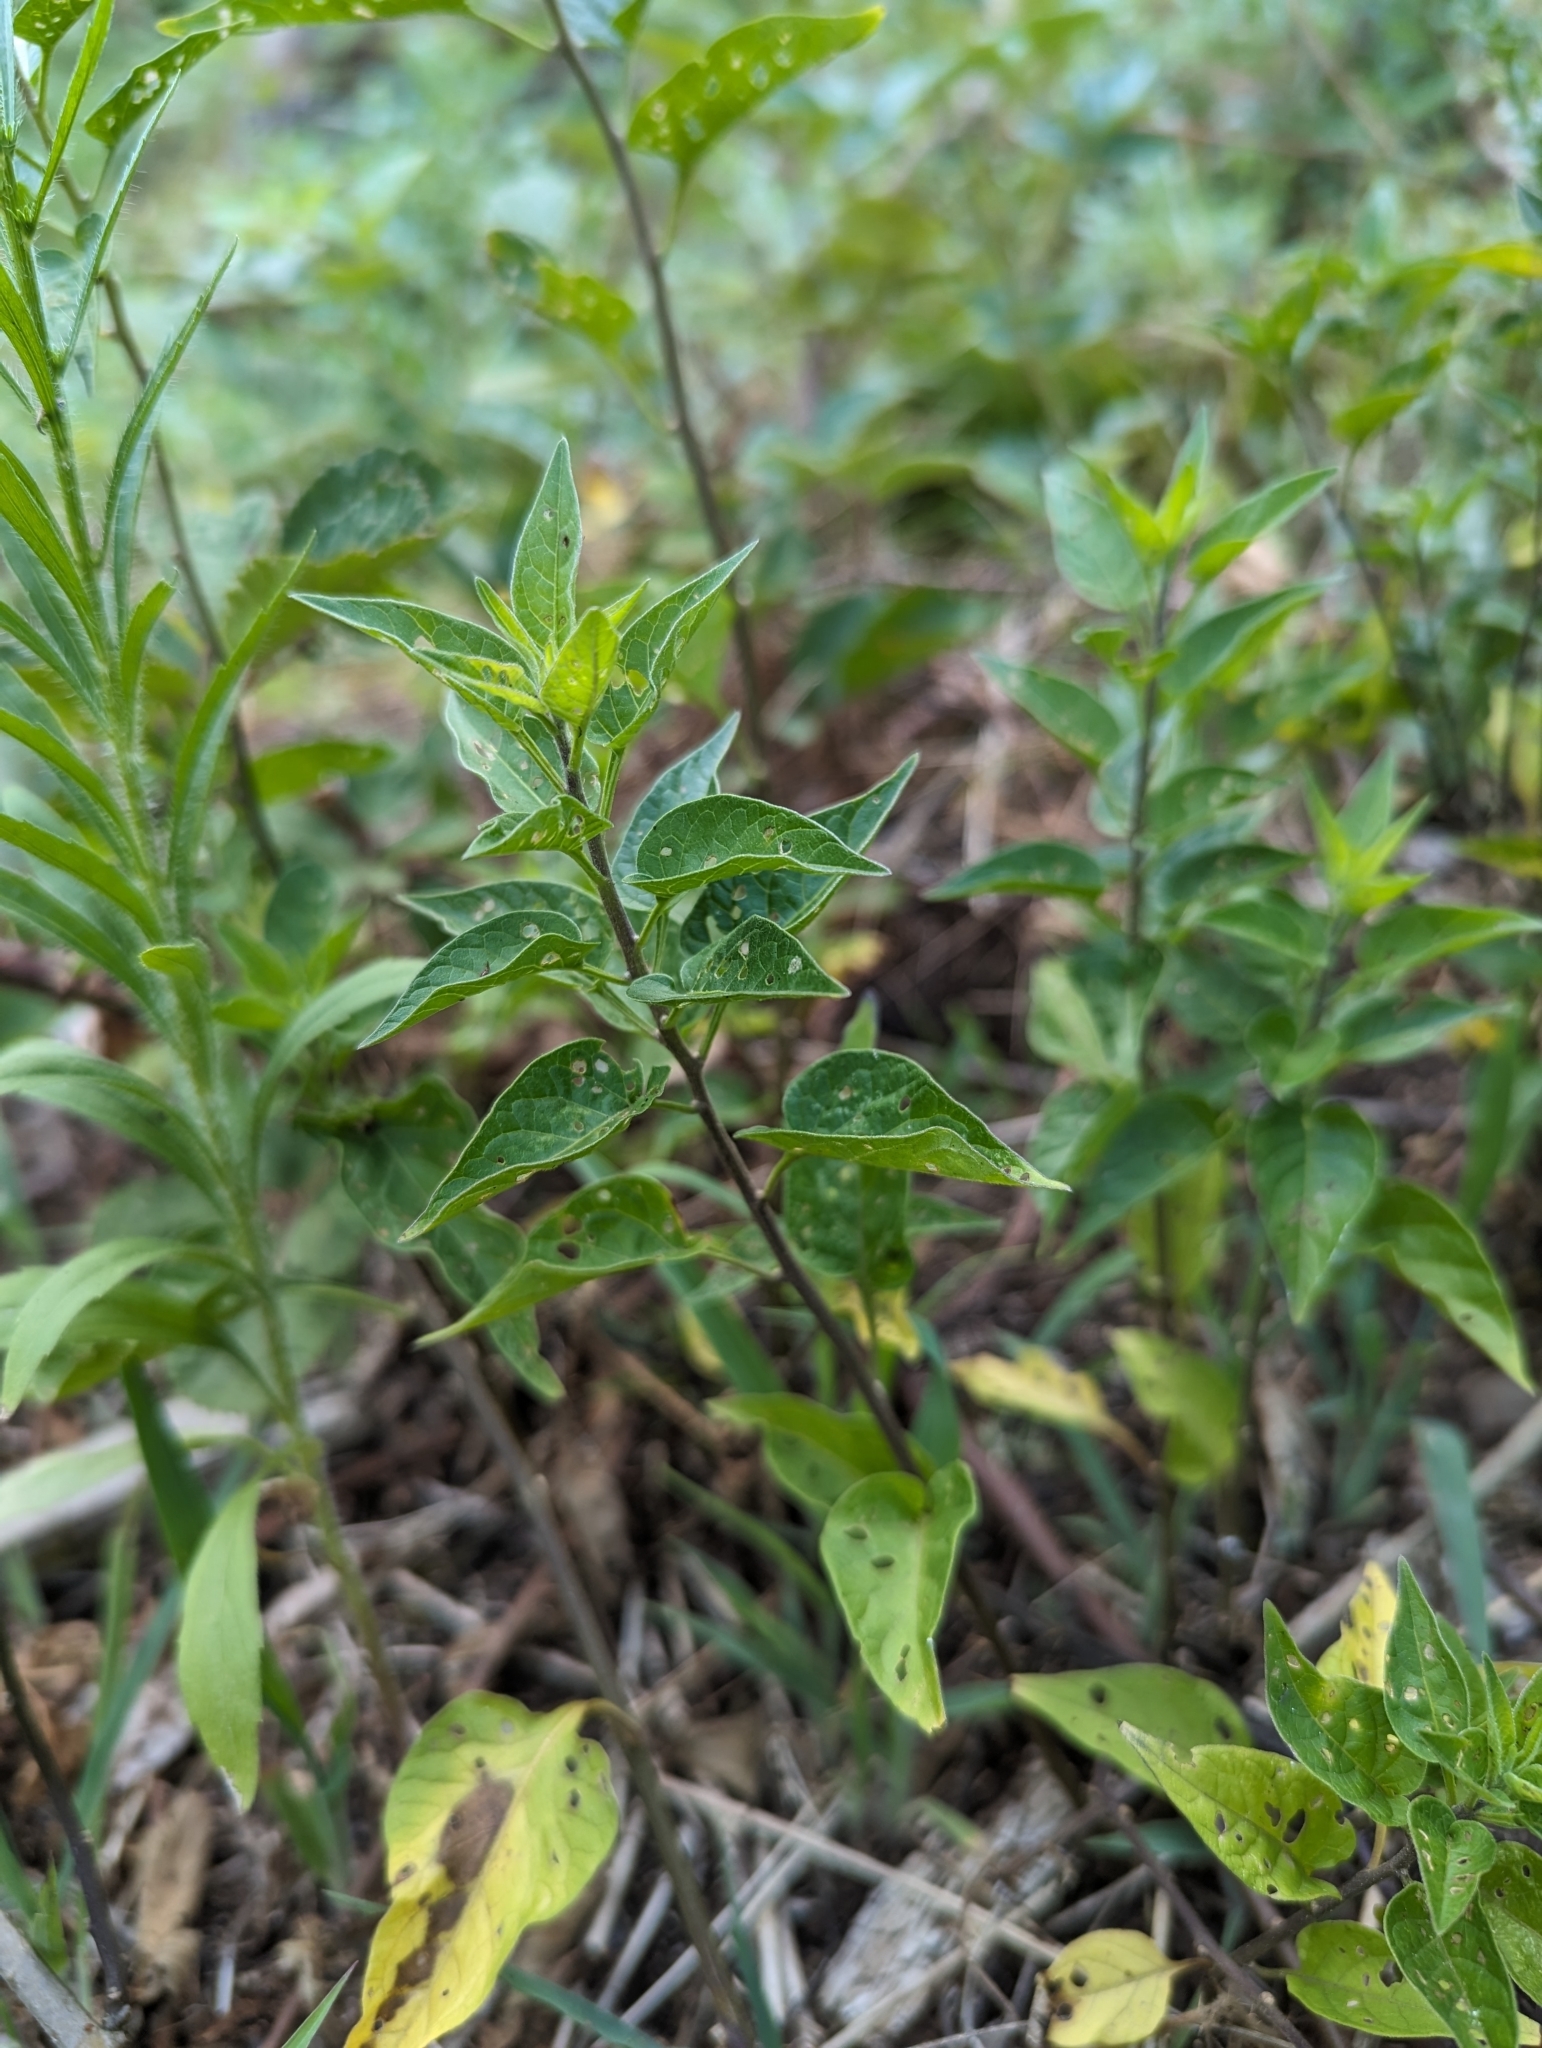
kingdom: Plantae
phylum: Tracheophyta
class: Magnoliopsida
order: Solanales
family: Solanaceae
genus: Solanum
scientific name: Solanum dulcamara
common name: Climbing nightshade
